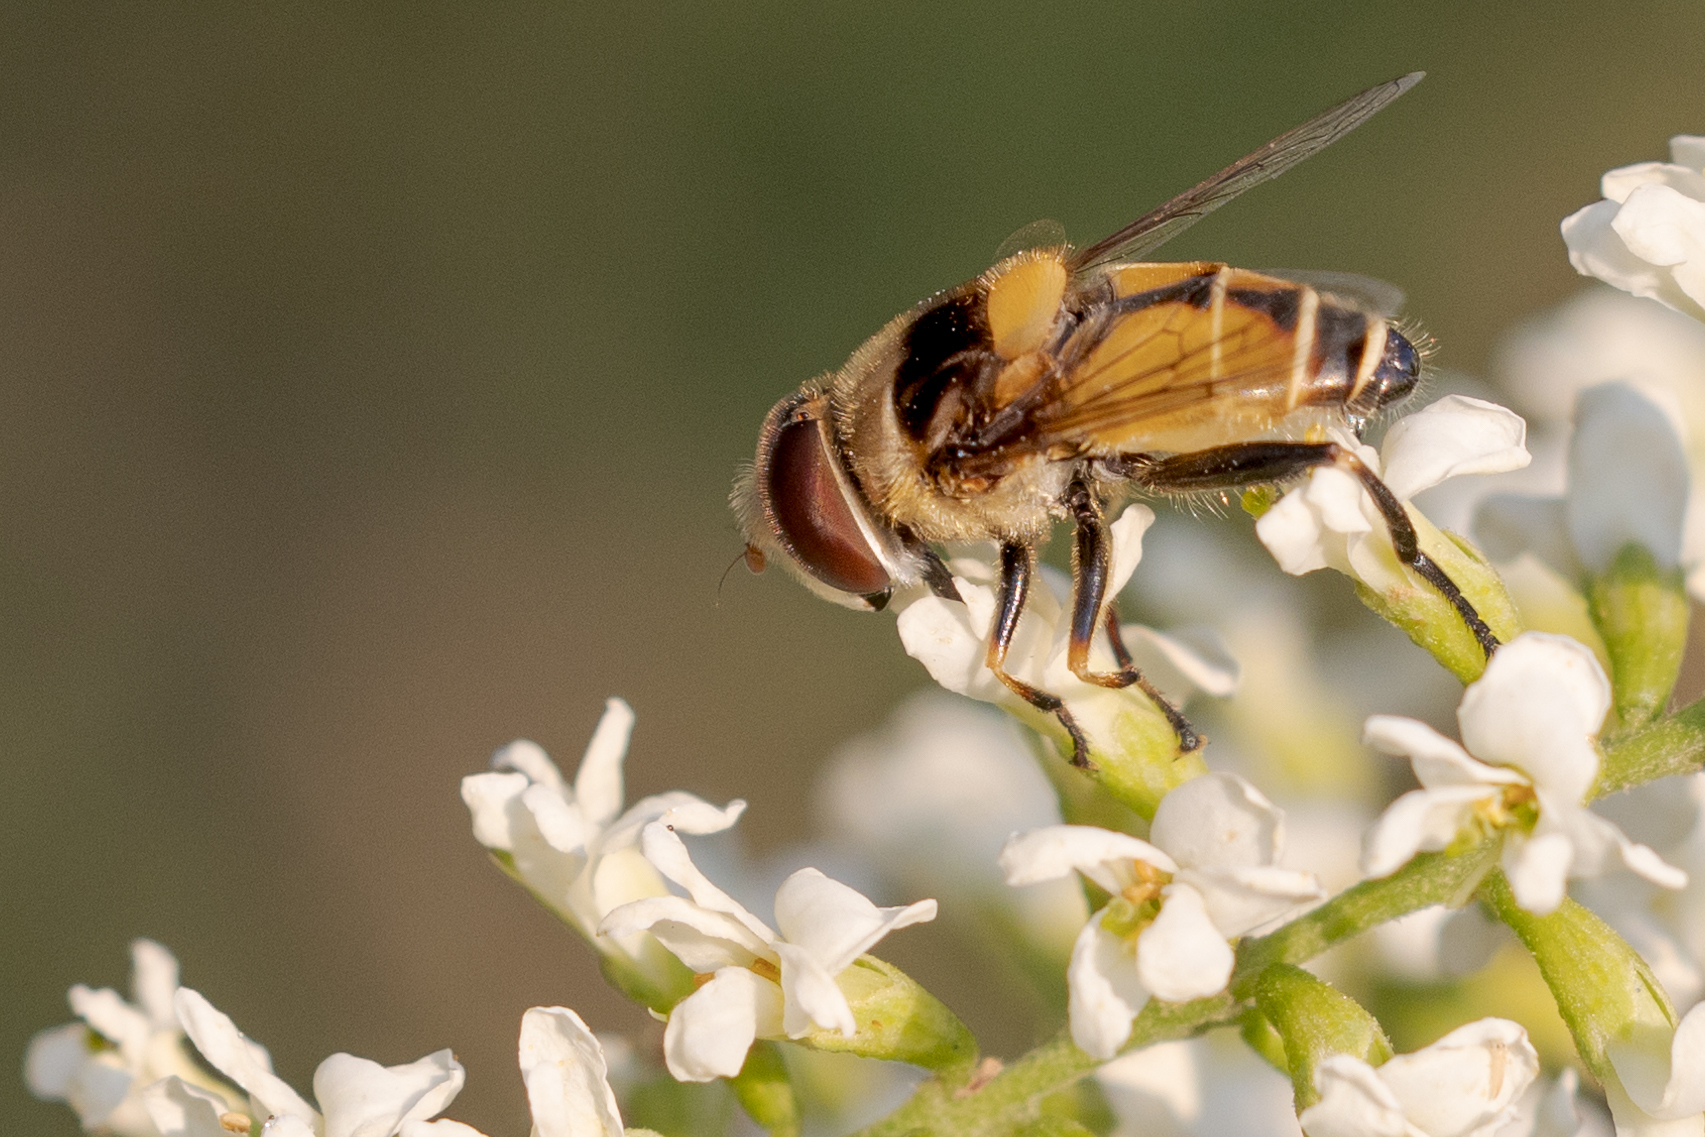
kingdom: Animalia
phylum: Arthropoda
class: Insecta
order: Diptera
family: Syrphidae
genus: Palpada
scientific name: Palpada pusilla
